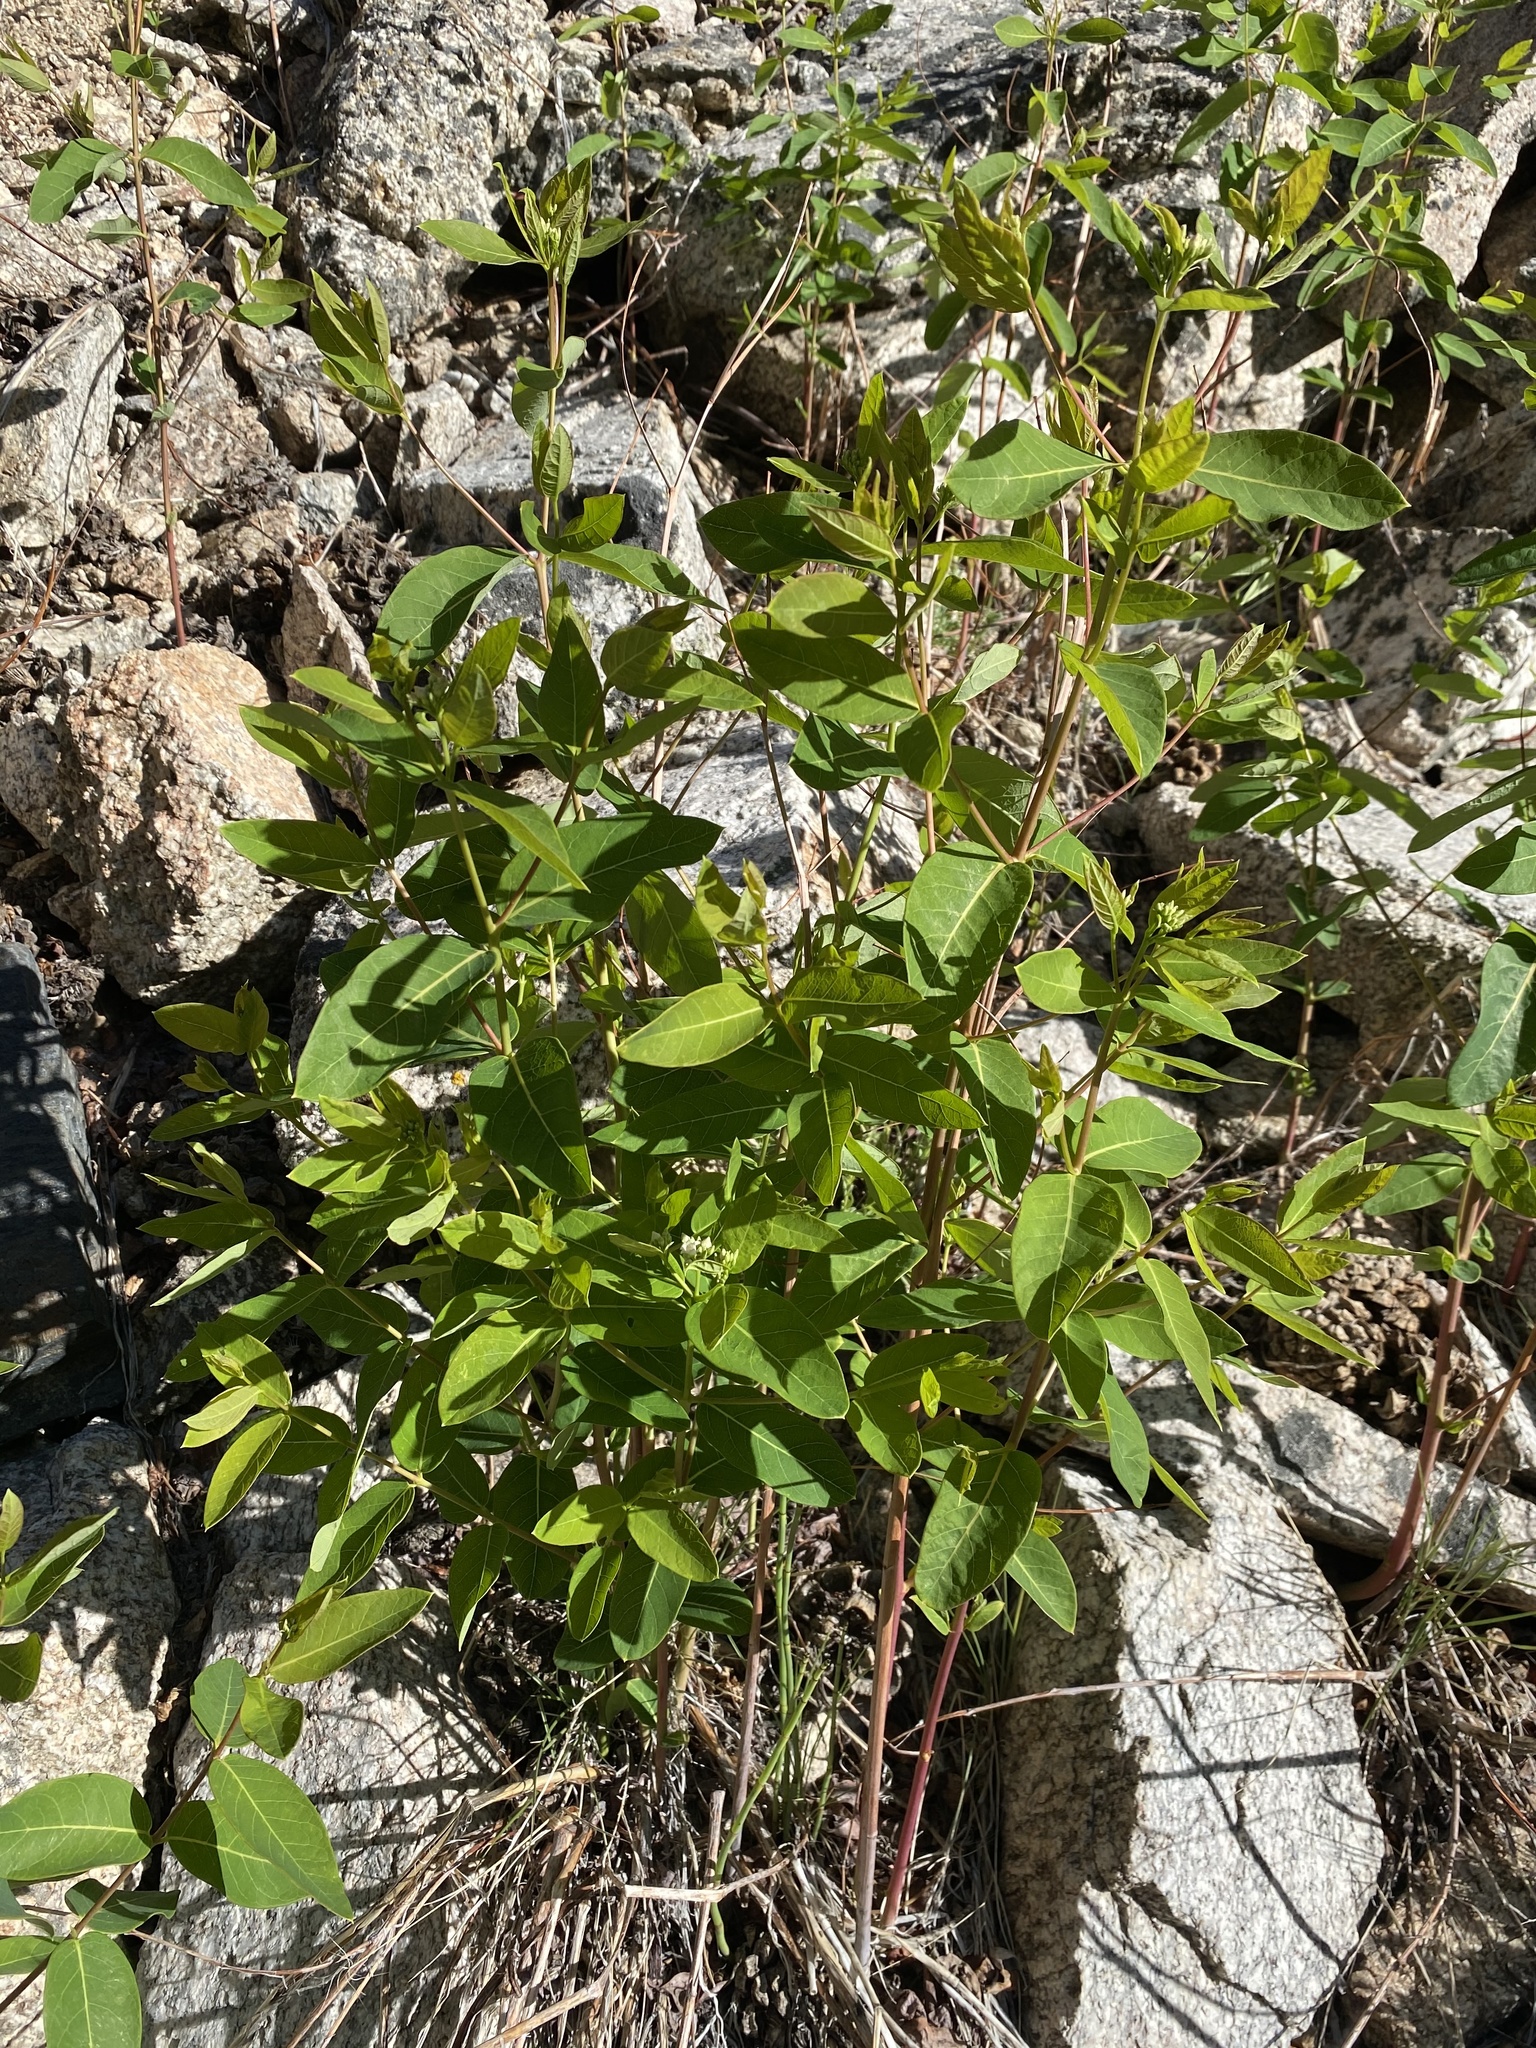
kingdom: Plantae
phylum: Tracheophyta
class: Magnoliopsida
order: Gentianales
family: Apocynaceae
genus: Apocynum
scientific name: Apocynum cannabinum
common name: Hemp dogbane
